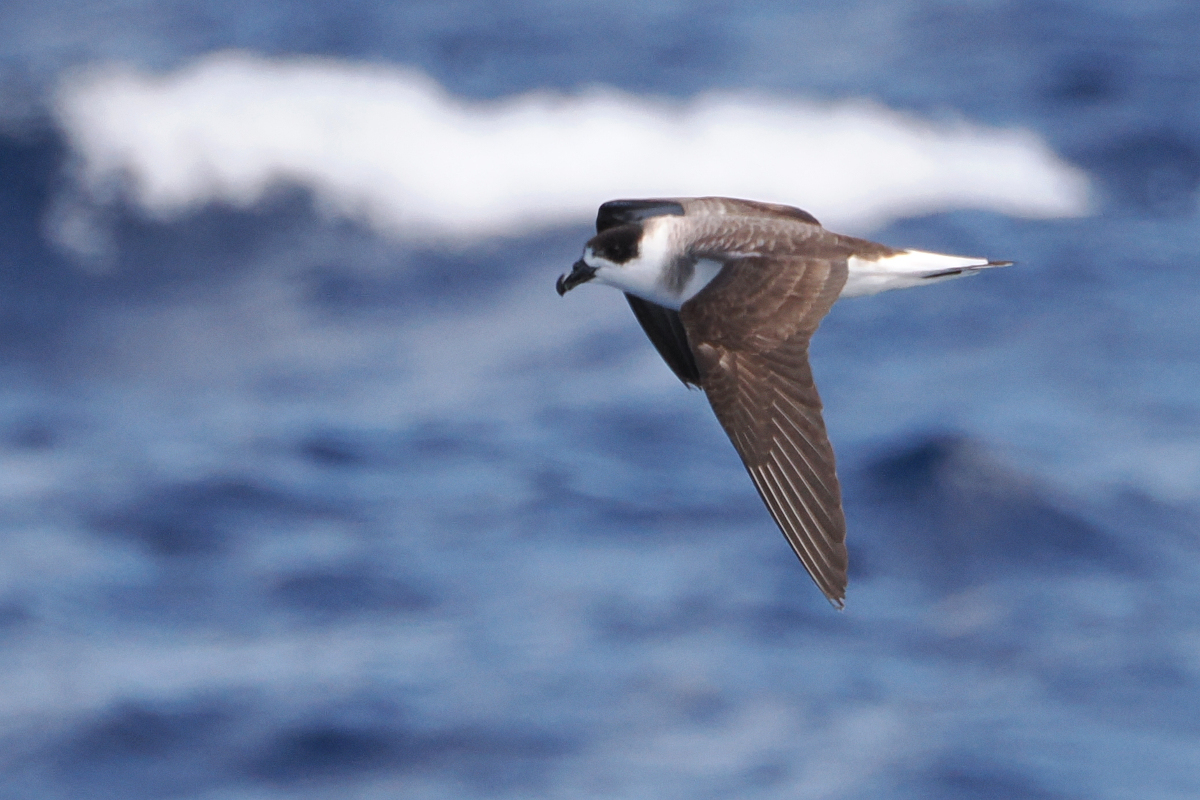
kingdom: Animalia
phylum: Chordata
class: Aves
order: Procellariiformes
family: Procellariidae
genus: Pterodroma
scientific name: Pterodroma hasitata
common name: Black-capped petrel
